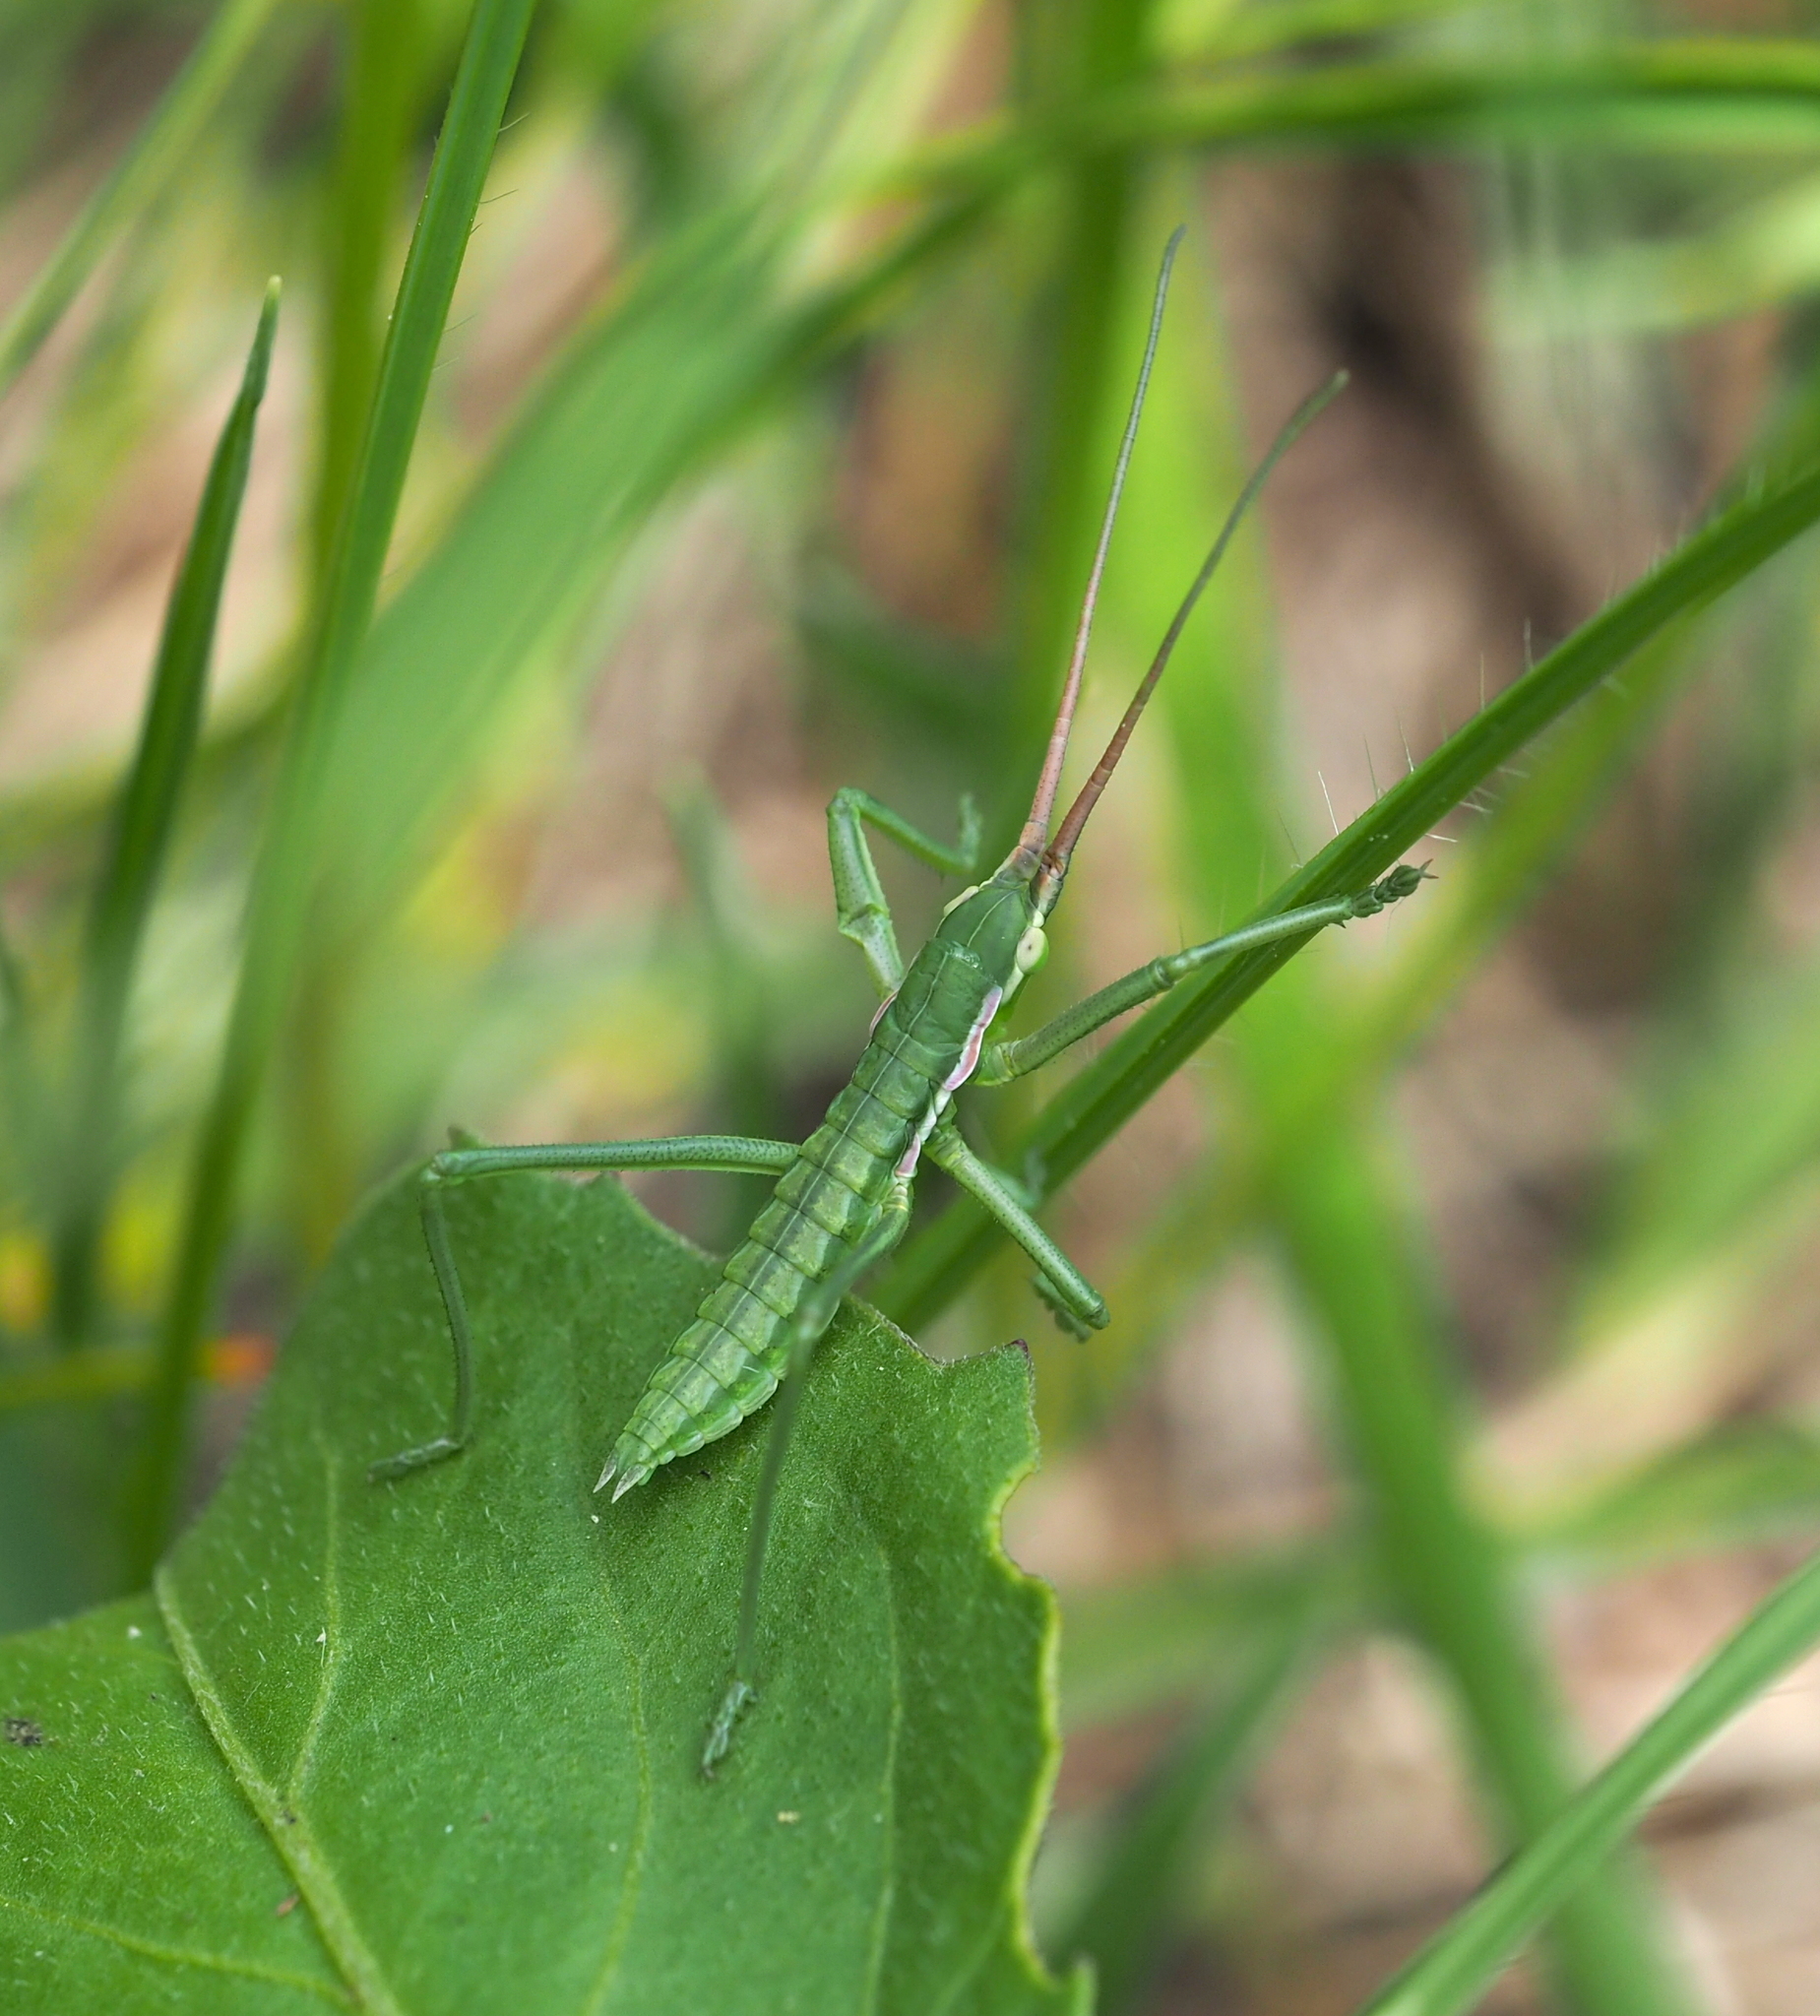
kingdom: Animalia
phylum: Arthropoda
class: Insecta
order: Orthoptera
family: Tettigoniidae
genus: Saga
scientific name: Saga pedo
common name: Common predatory bush-cricket
